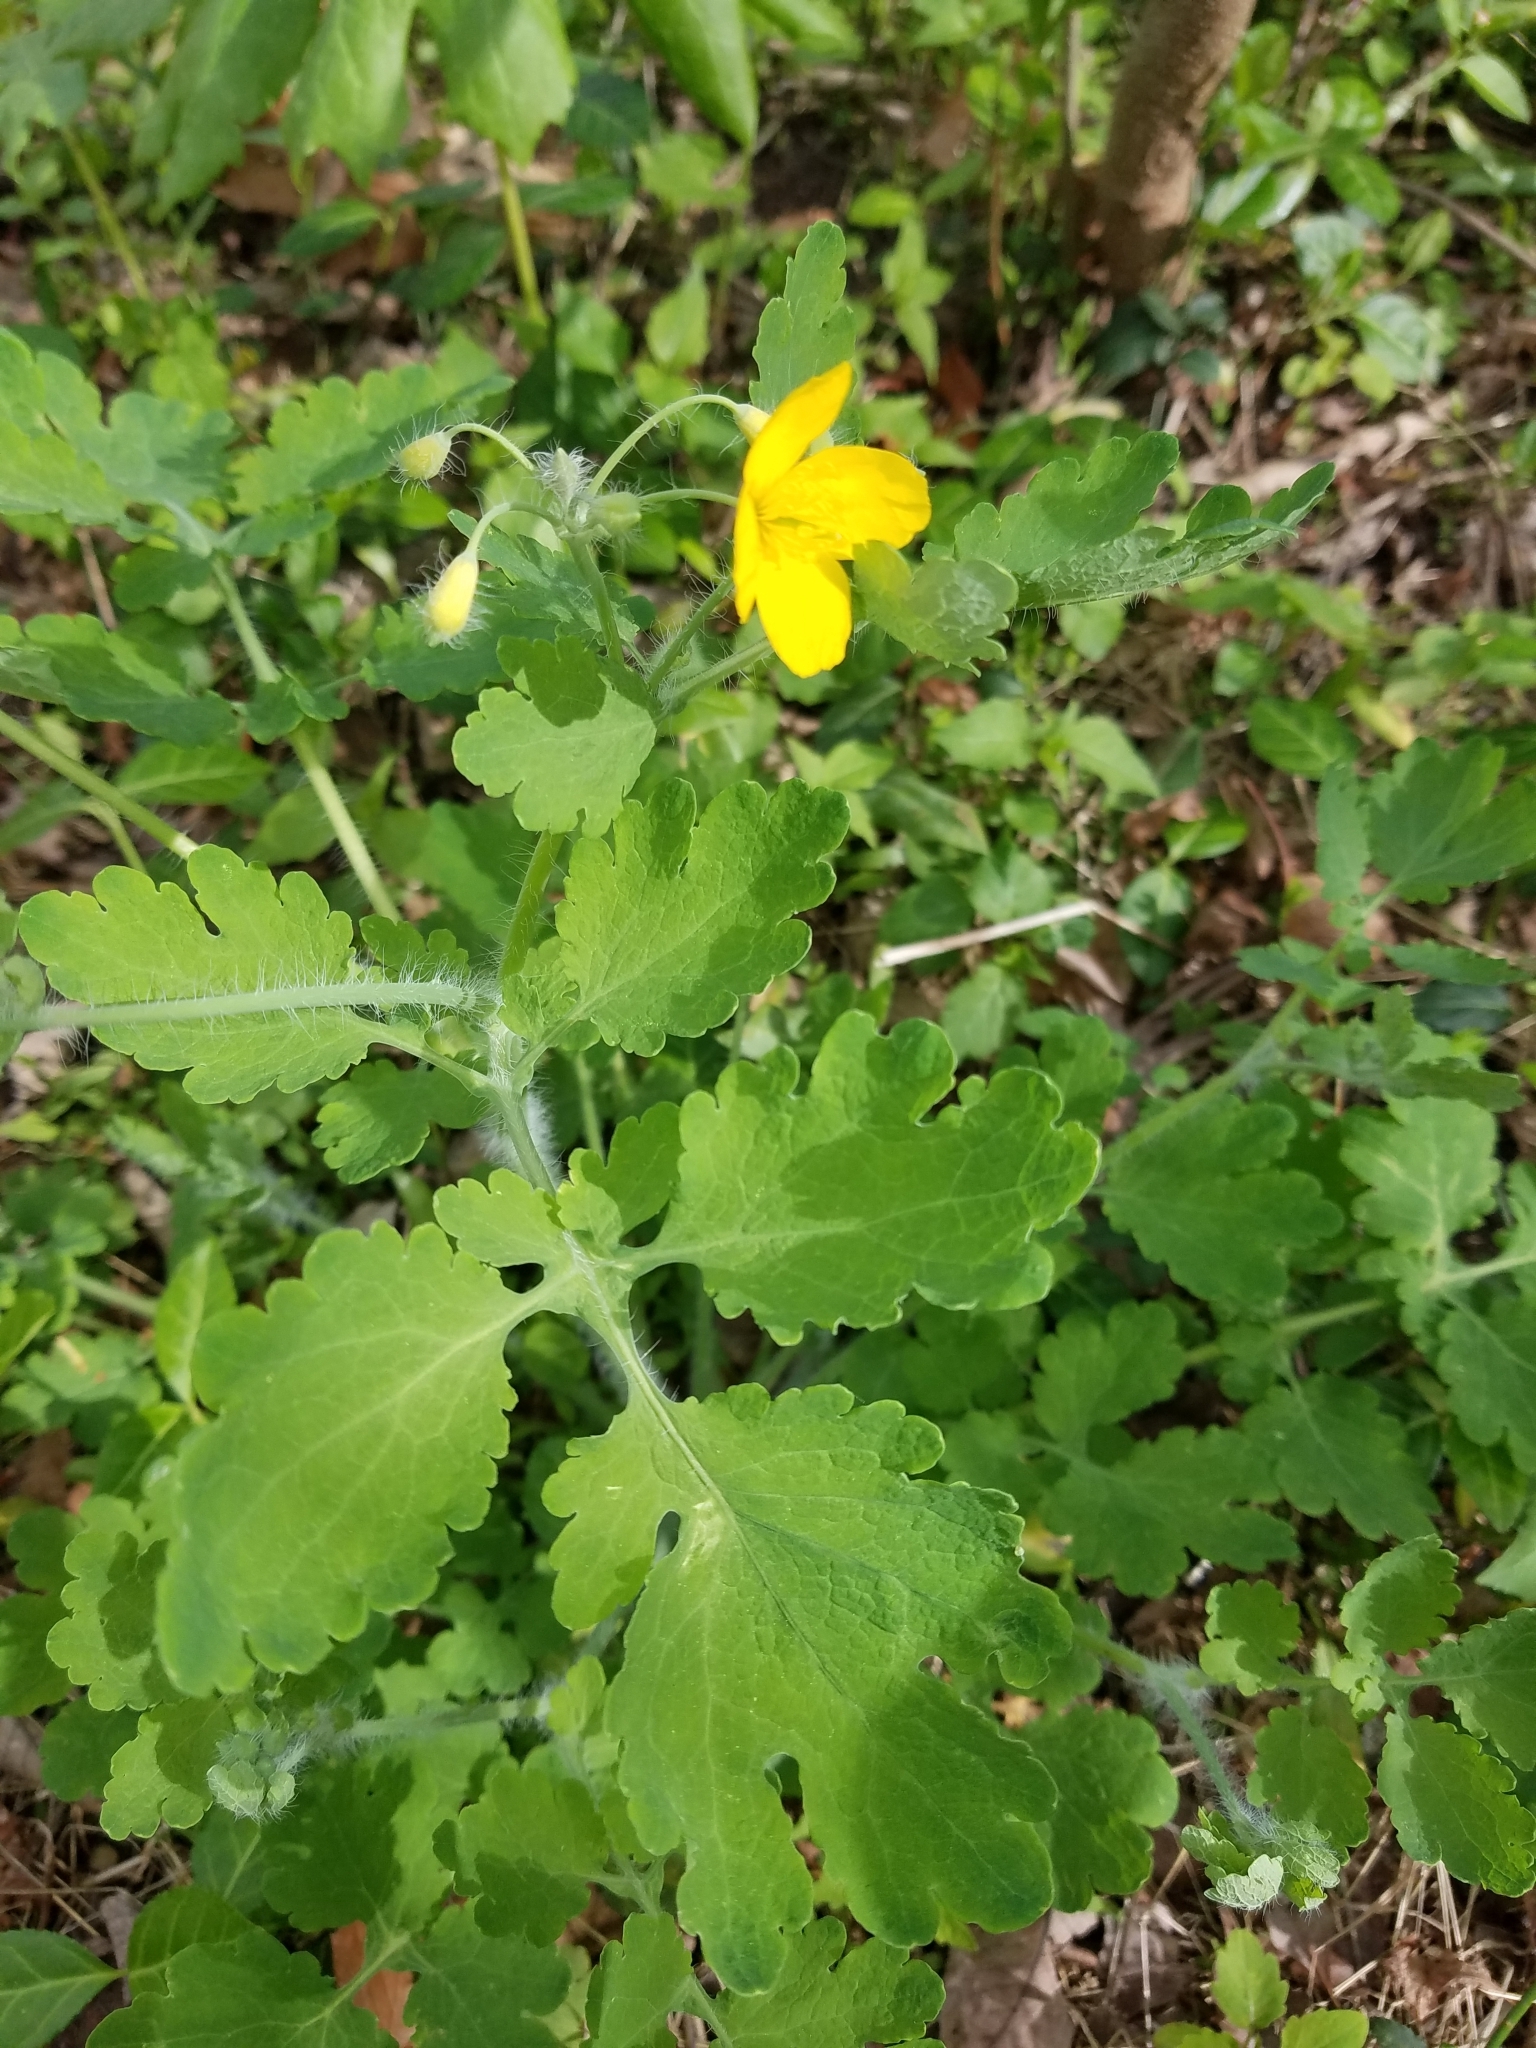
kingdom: Plantae
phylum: Tracheophyta
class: Magnoliopsida
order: Ranunculales
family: Papaveraceae
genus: Chelidonium
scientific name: Chelidonium majus
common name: Greater celandine
